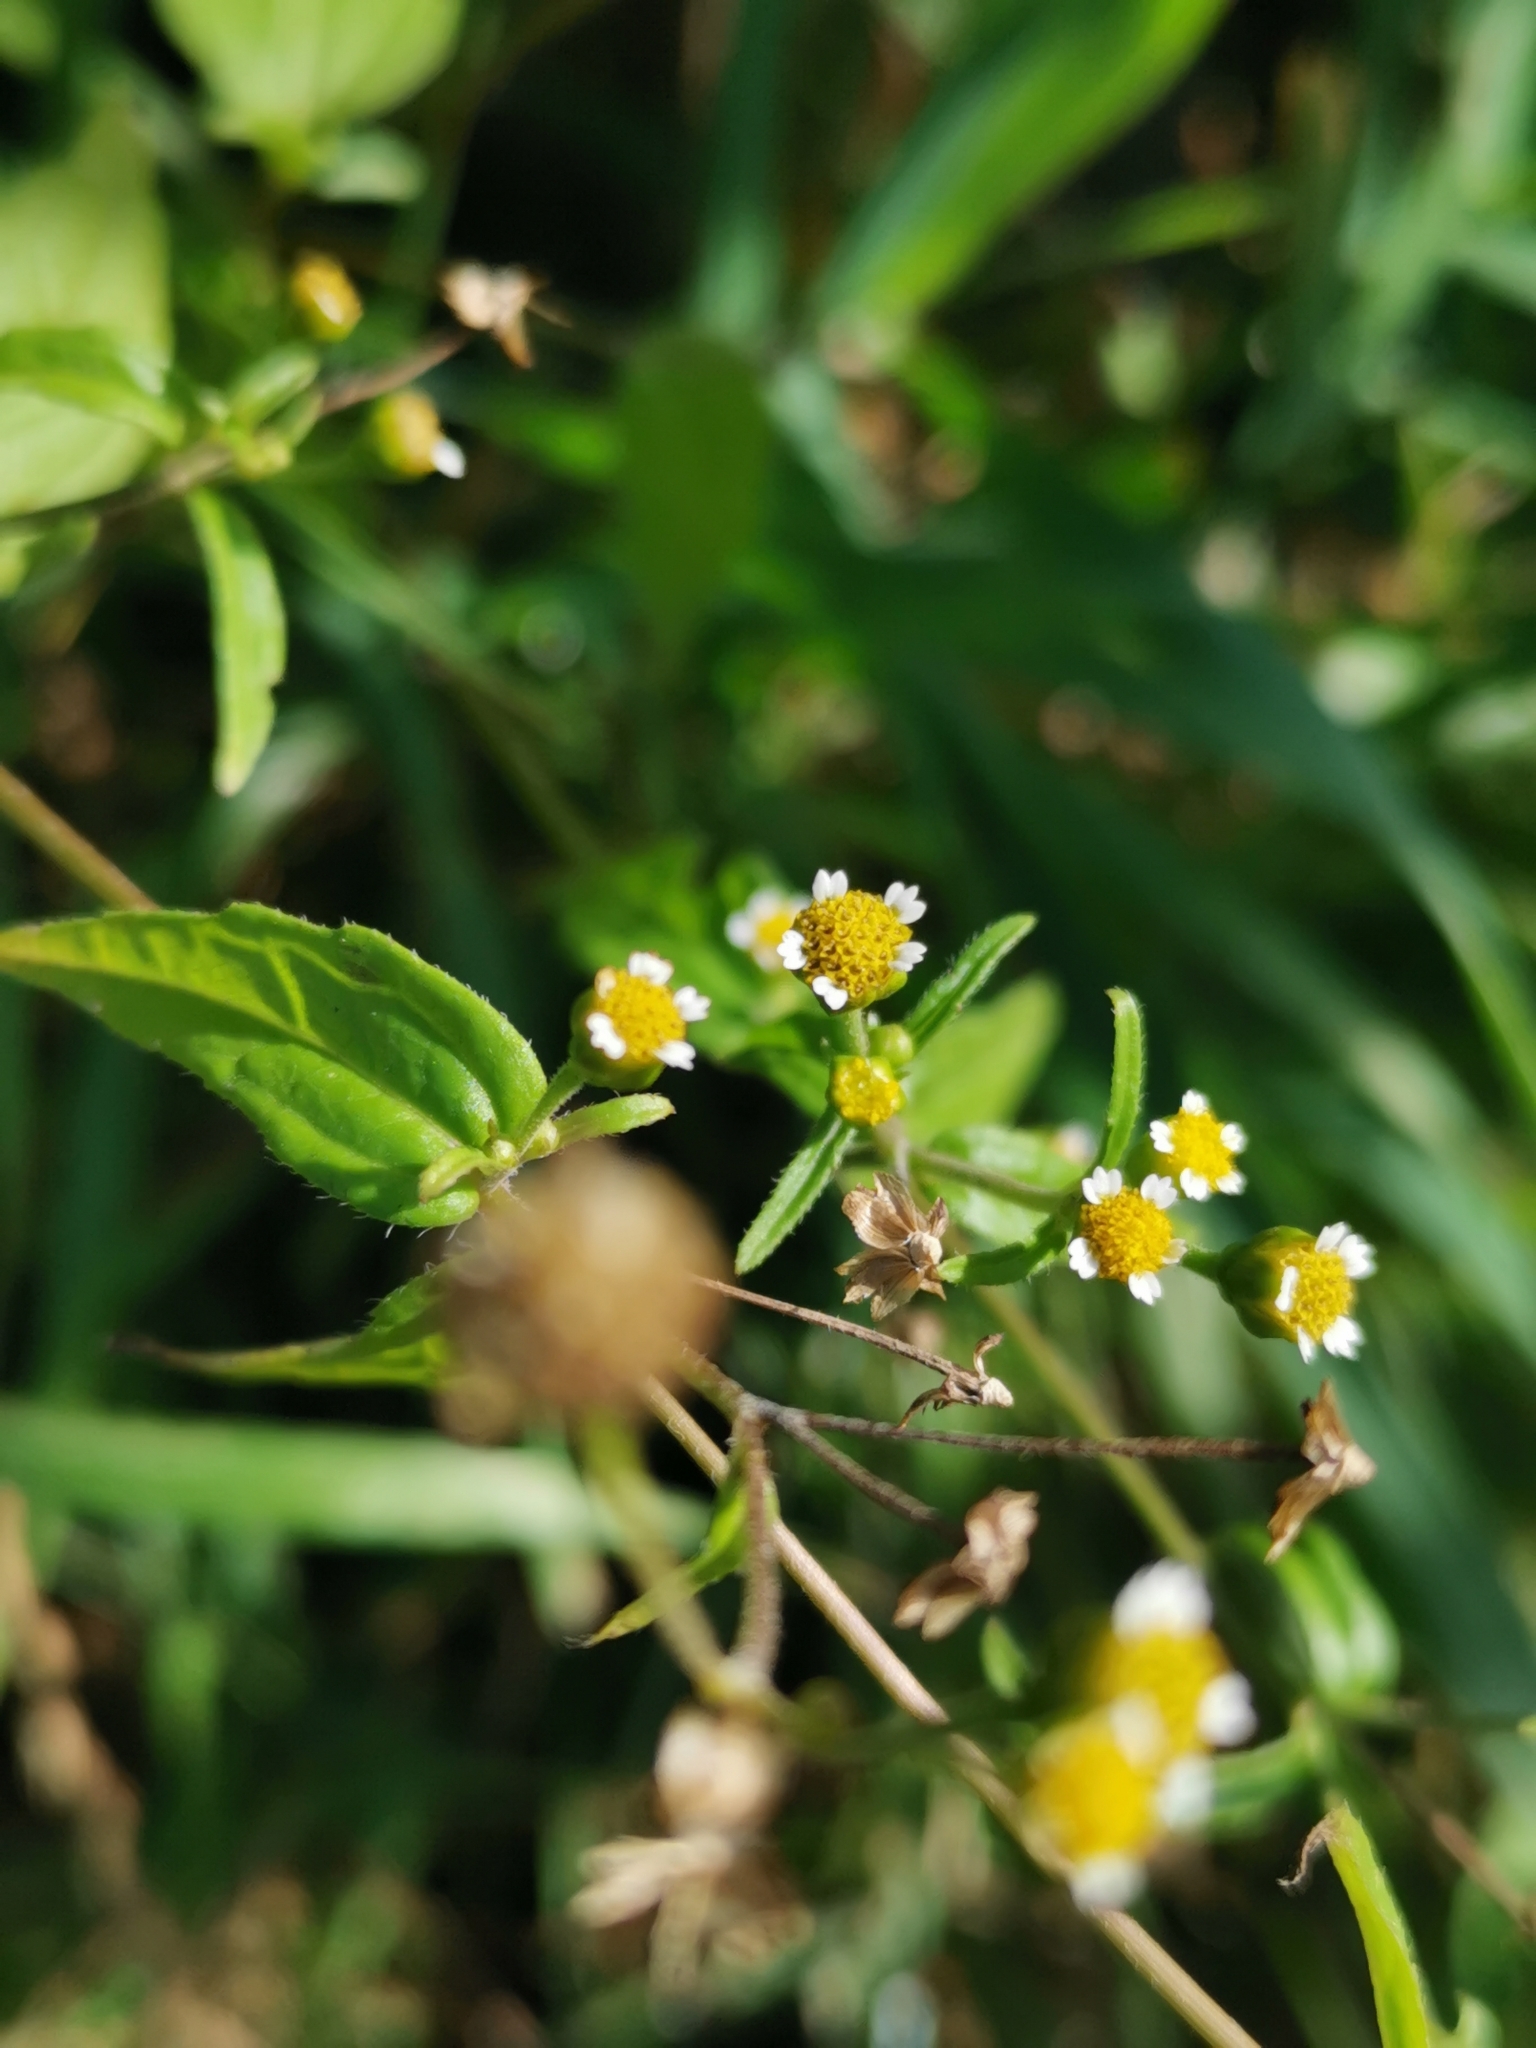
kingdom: Plantae
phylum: Tracheophyta
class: Magnoliopsida
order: Asterales
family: Asteraceae
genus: Galinsoga
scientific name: Galinsoga parviflora
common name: Gallant soldier
